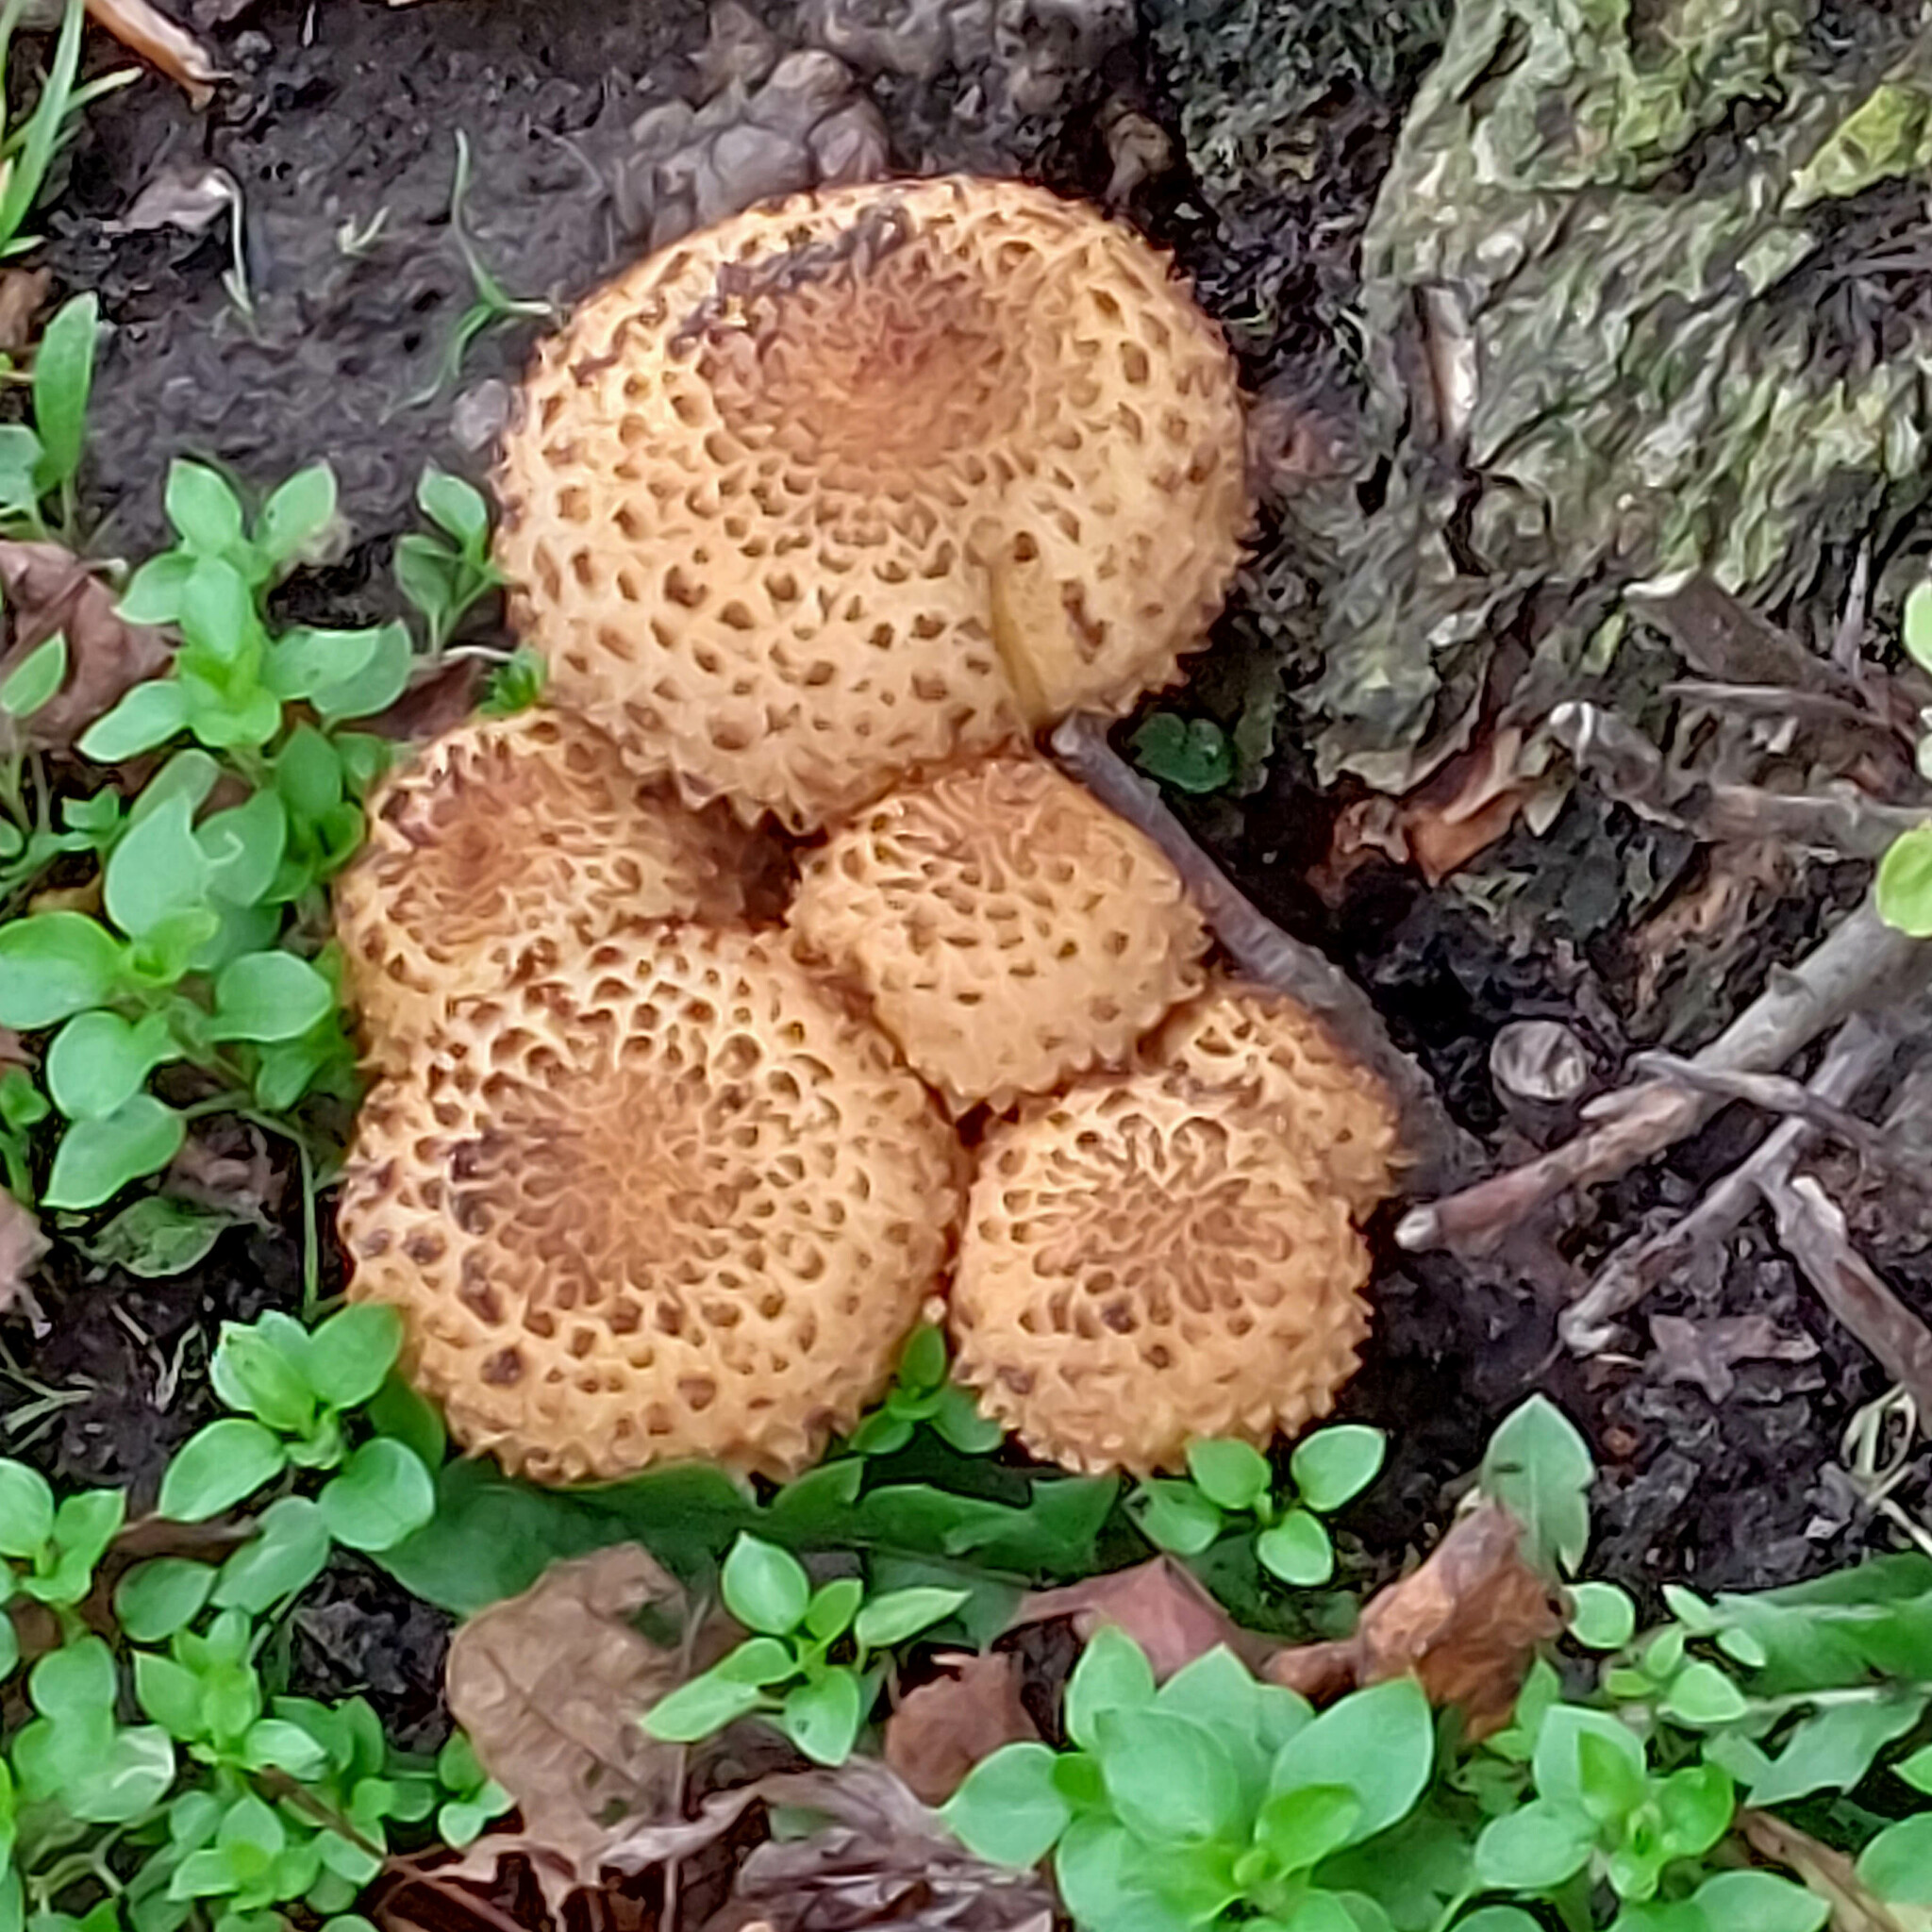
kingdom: Fungi
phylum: Basidiomycota
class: Agaricomycetes
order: Agaricales
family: Strophariaceae
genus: Pholiota
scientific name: Pholiota squarrosa
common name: Shaggy pholiota
